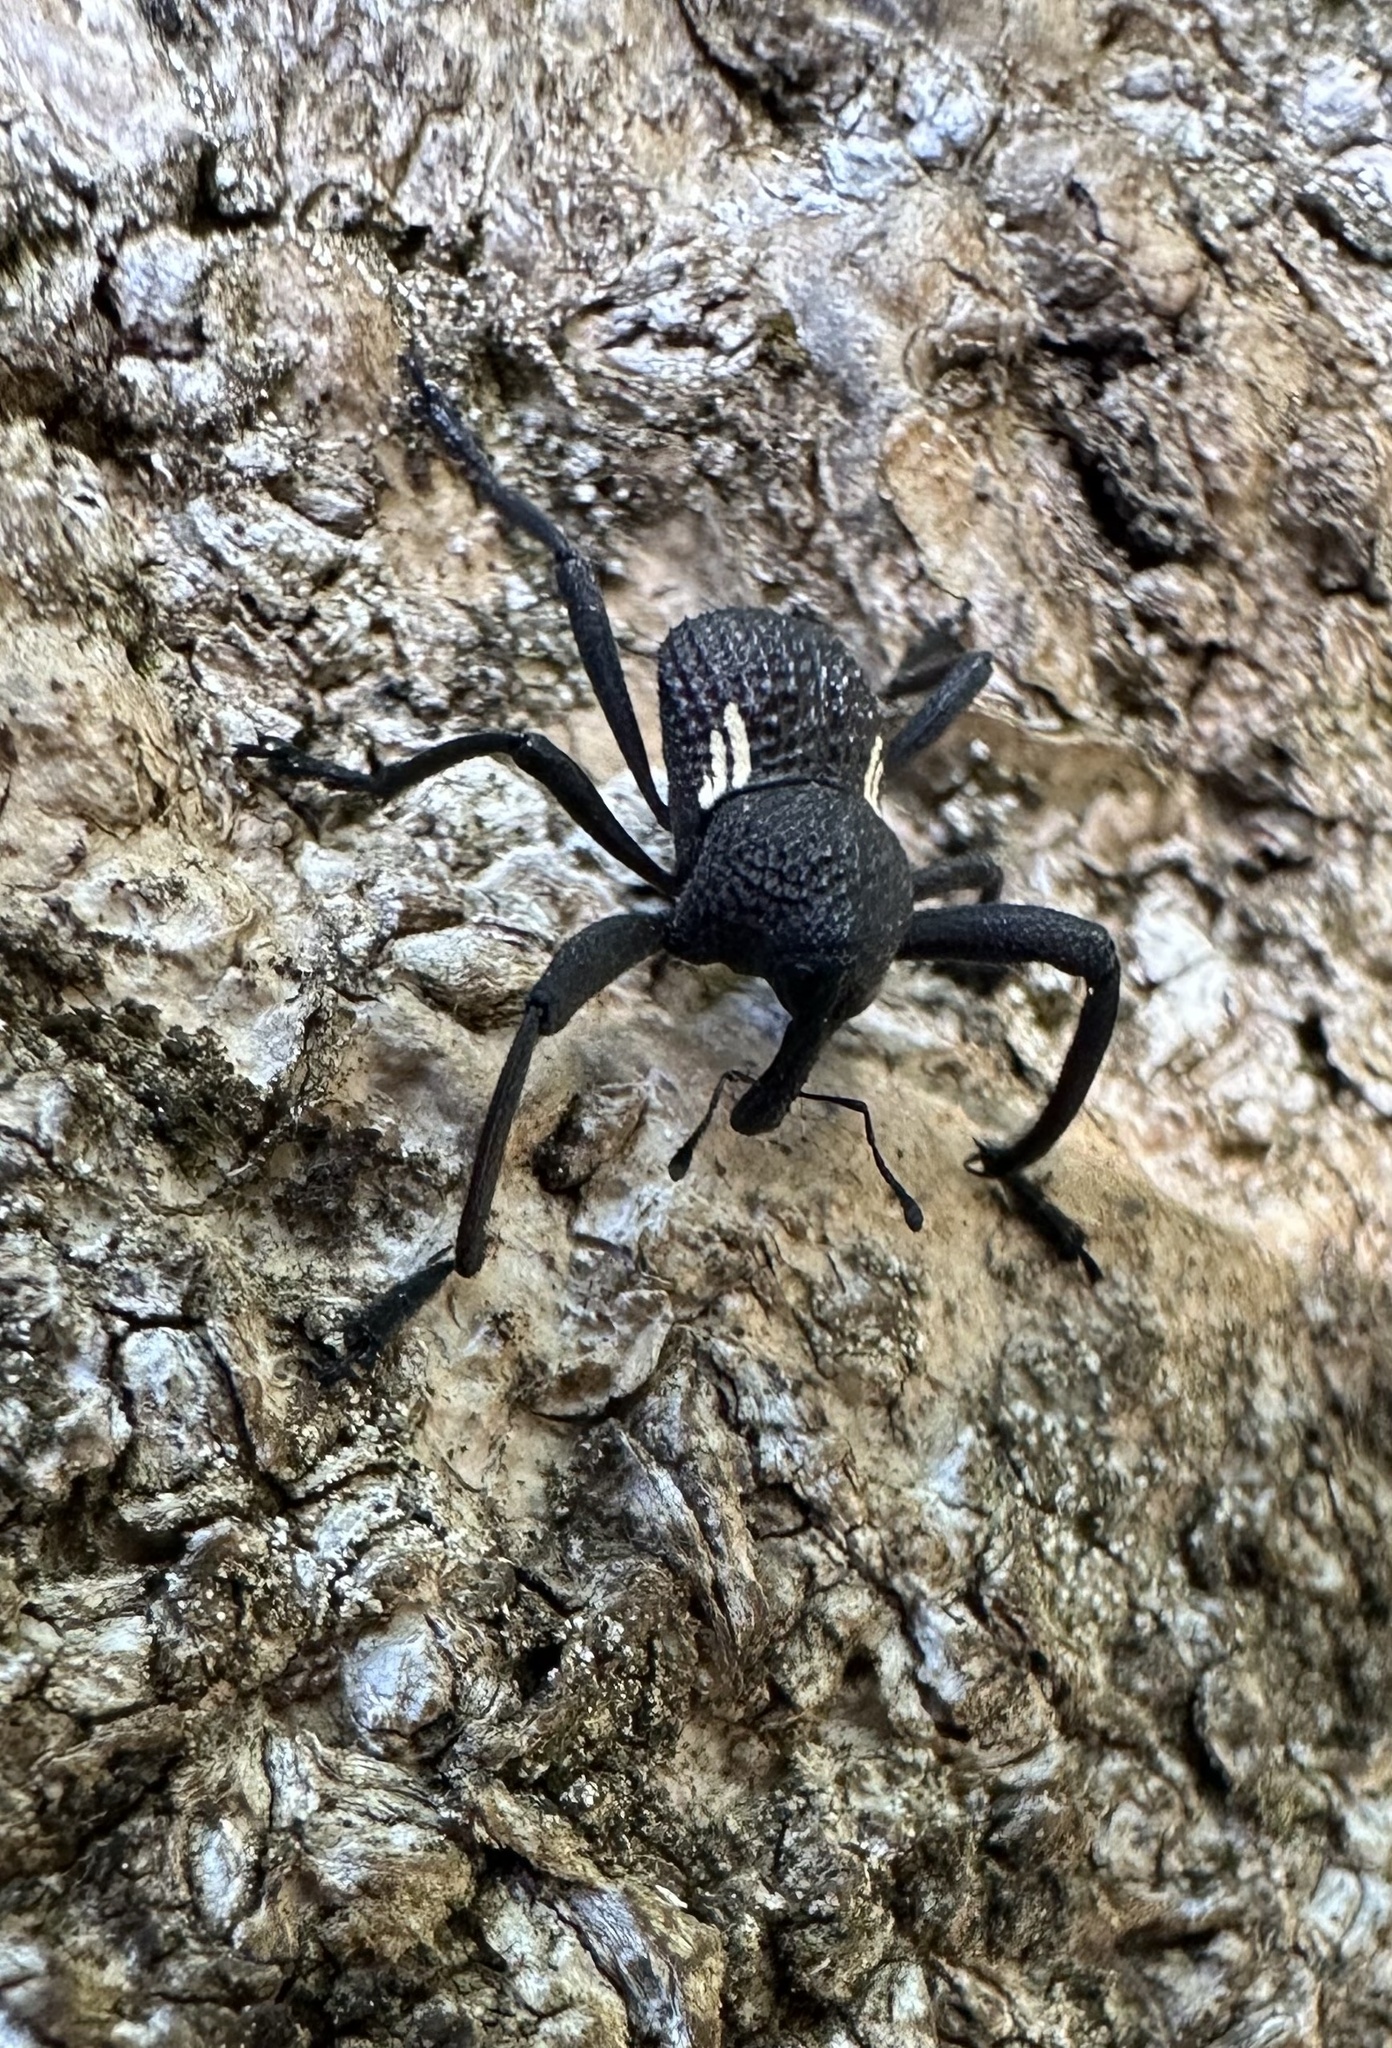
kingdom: Animalia
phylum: Arthropoda
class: Insecta
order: Coleoptera
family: Curculionidae
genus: Rhyephenes
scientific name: Rhyephenes humeralis
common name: Araè±ita chilena del pino
